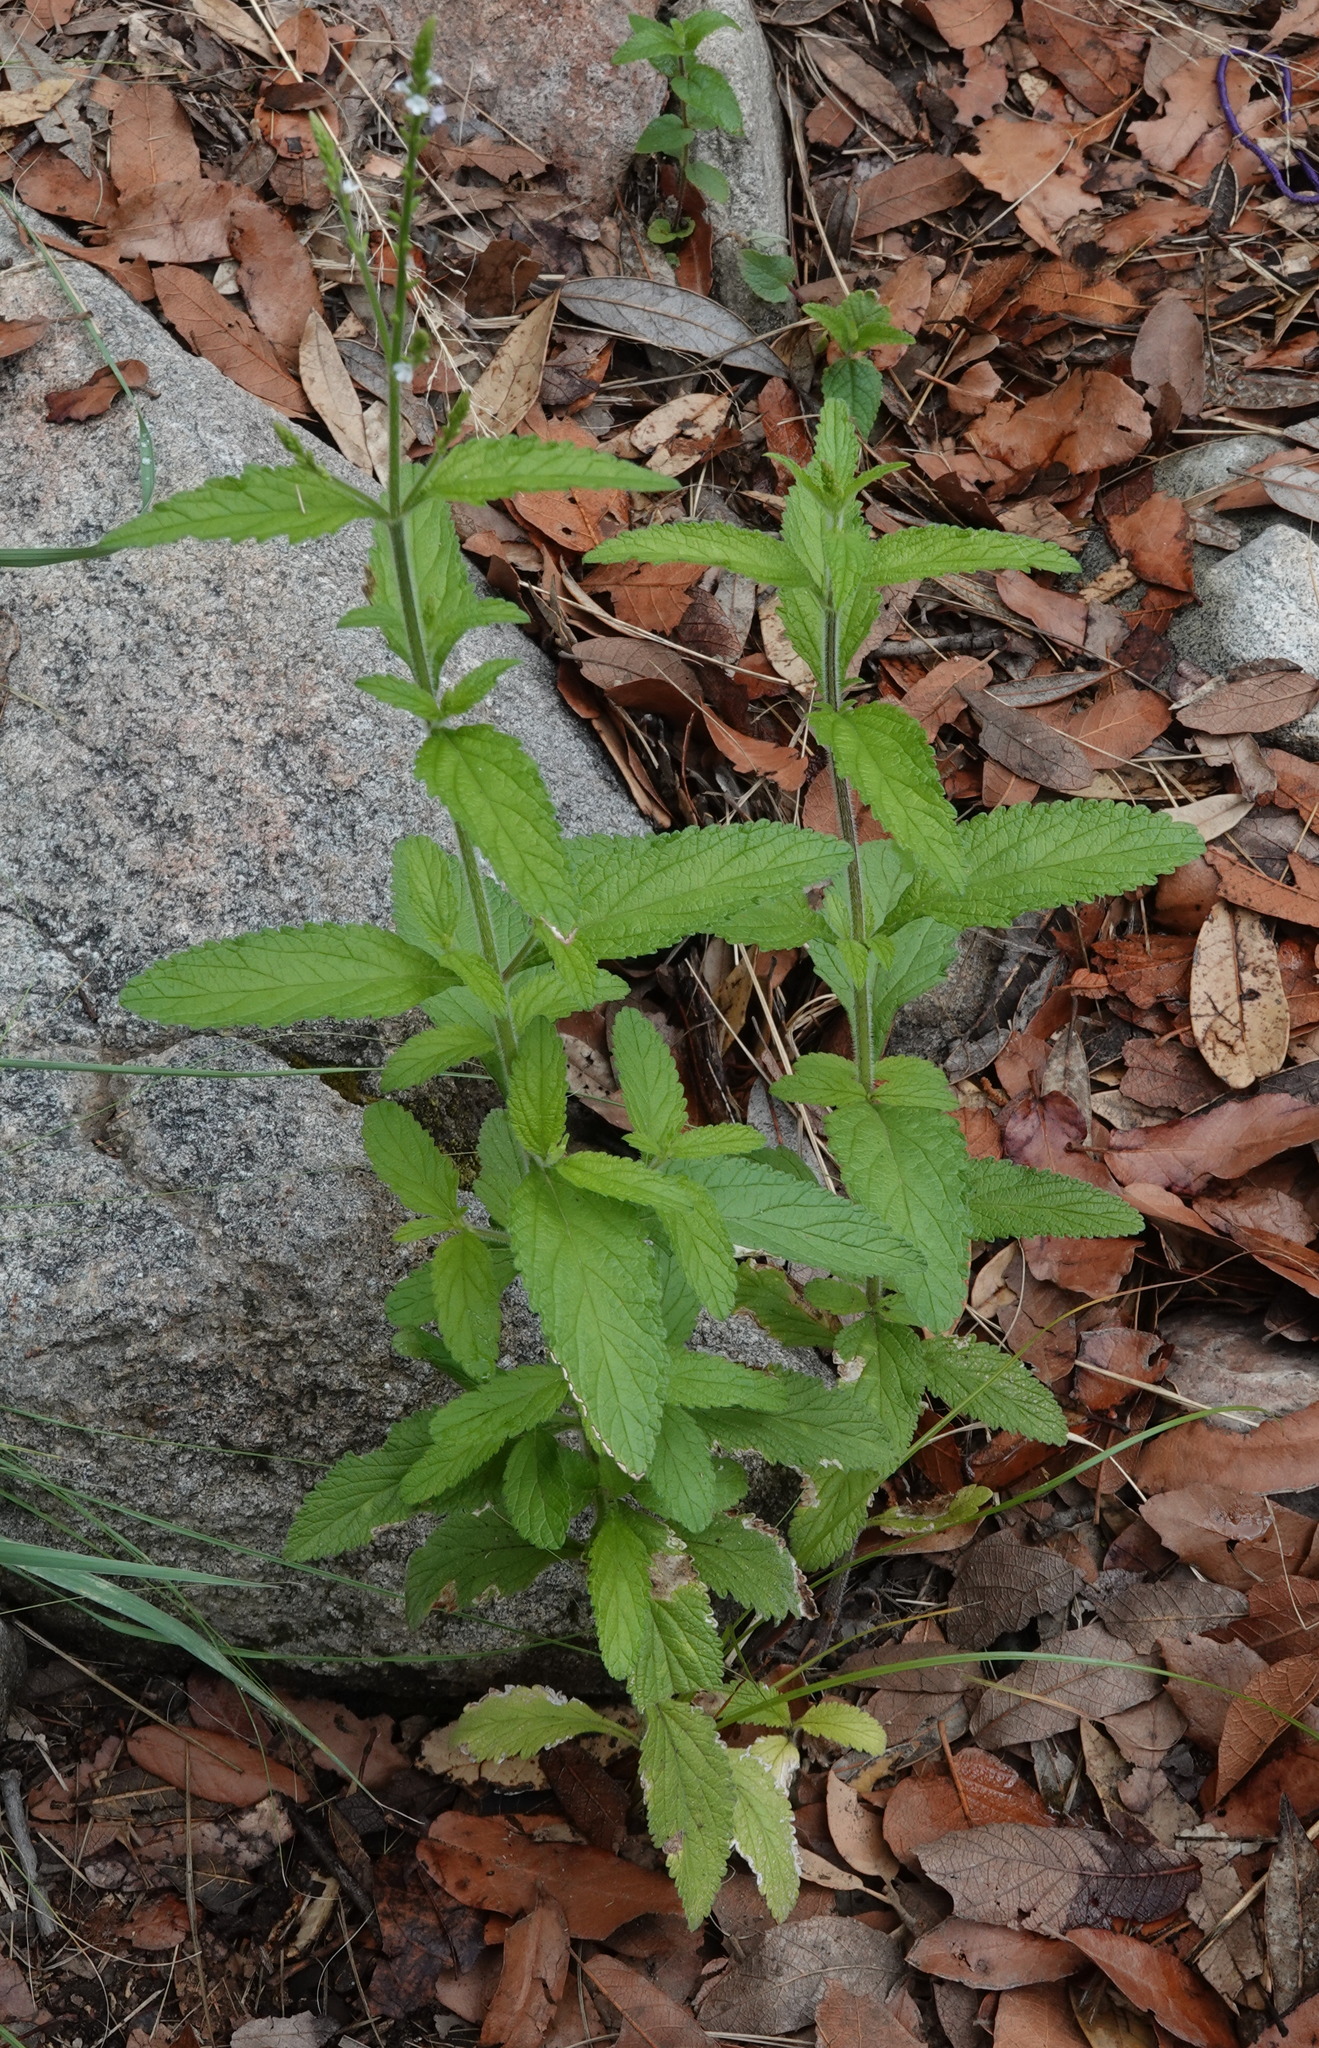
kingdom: Plantae
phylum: Tracheophyta
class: Magnoliopsida
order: Lamiales
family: Verbenaceae
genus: Verbena
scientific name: Verbena carolina
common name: Carolina vervain
